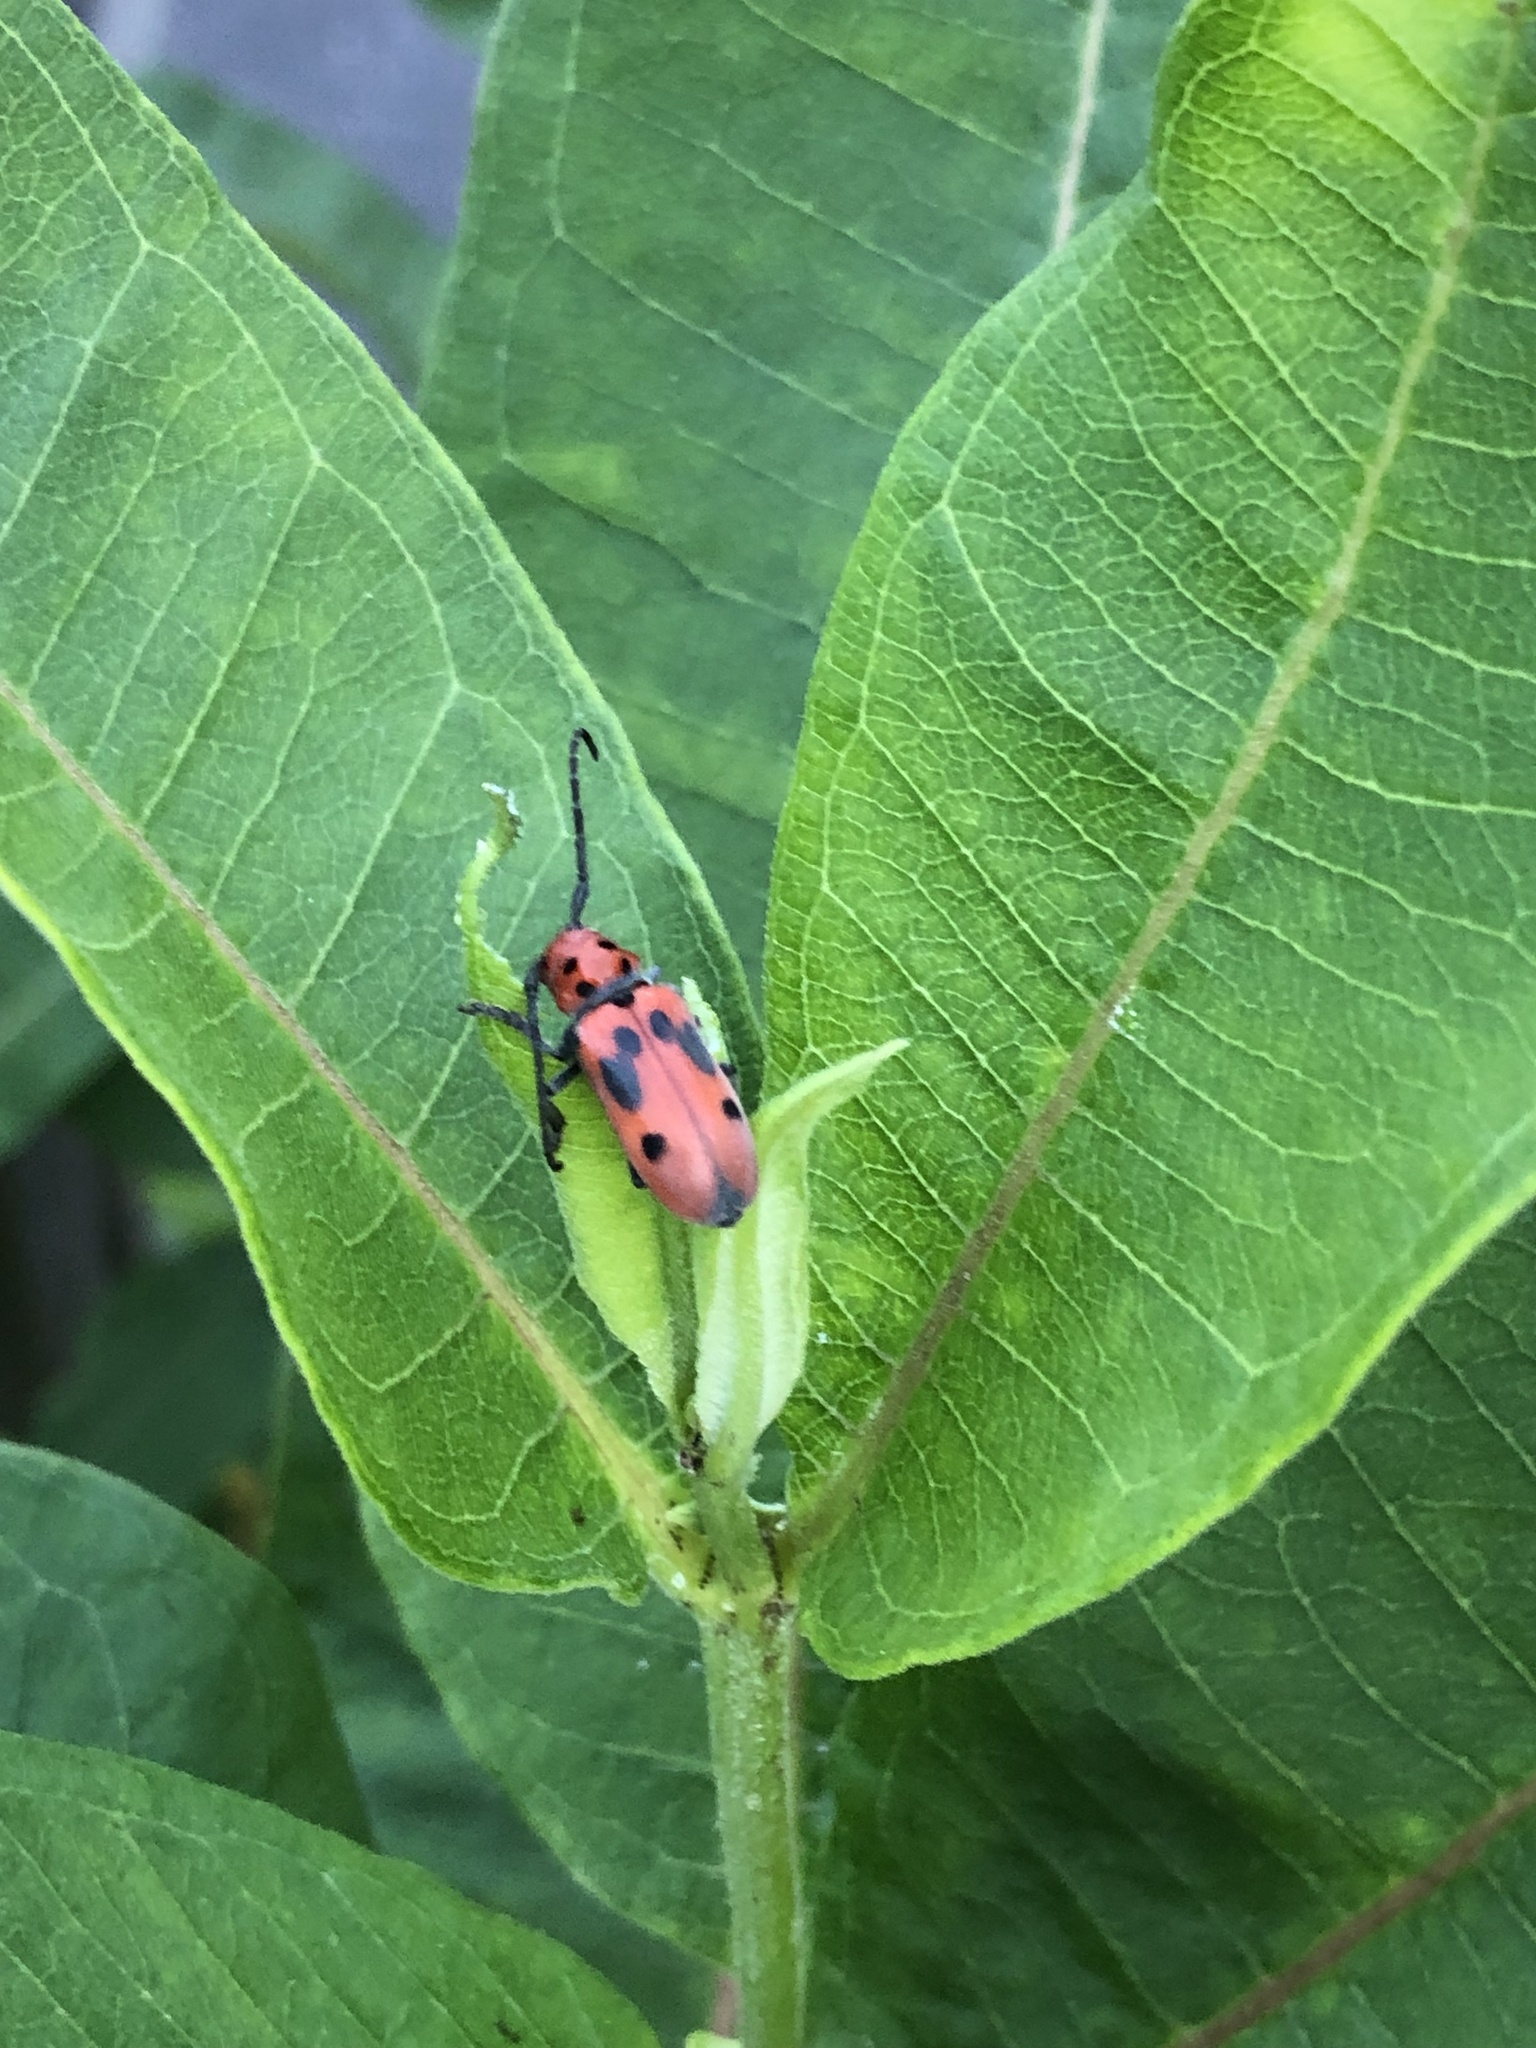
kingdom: Animalia
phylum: Arthropoda
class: Insecta
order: Coleoptera
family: Cerambycidae
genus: Tetraopes
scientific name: Tetraopes tetrophthalmus
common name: Red milkweed beetle
